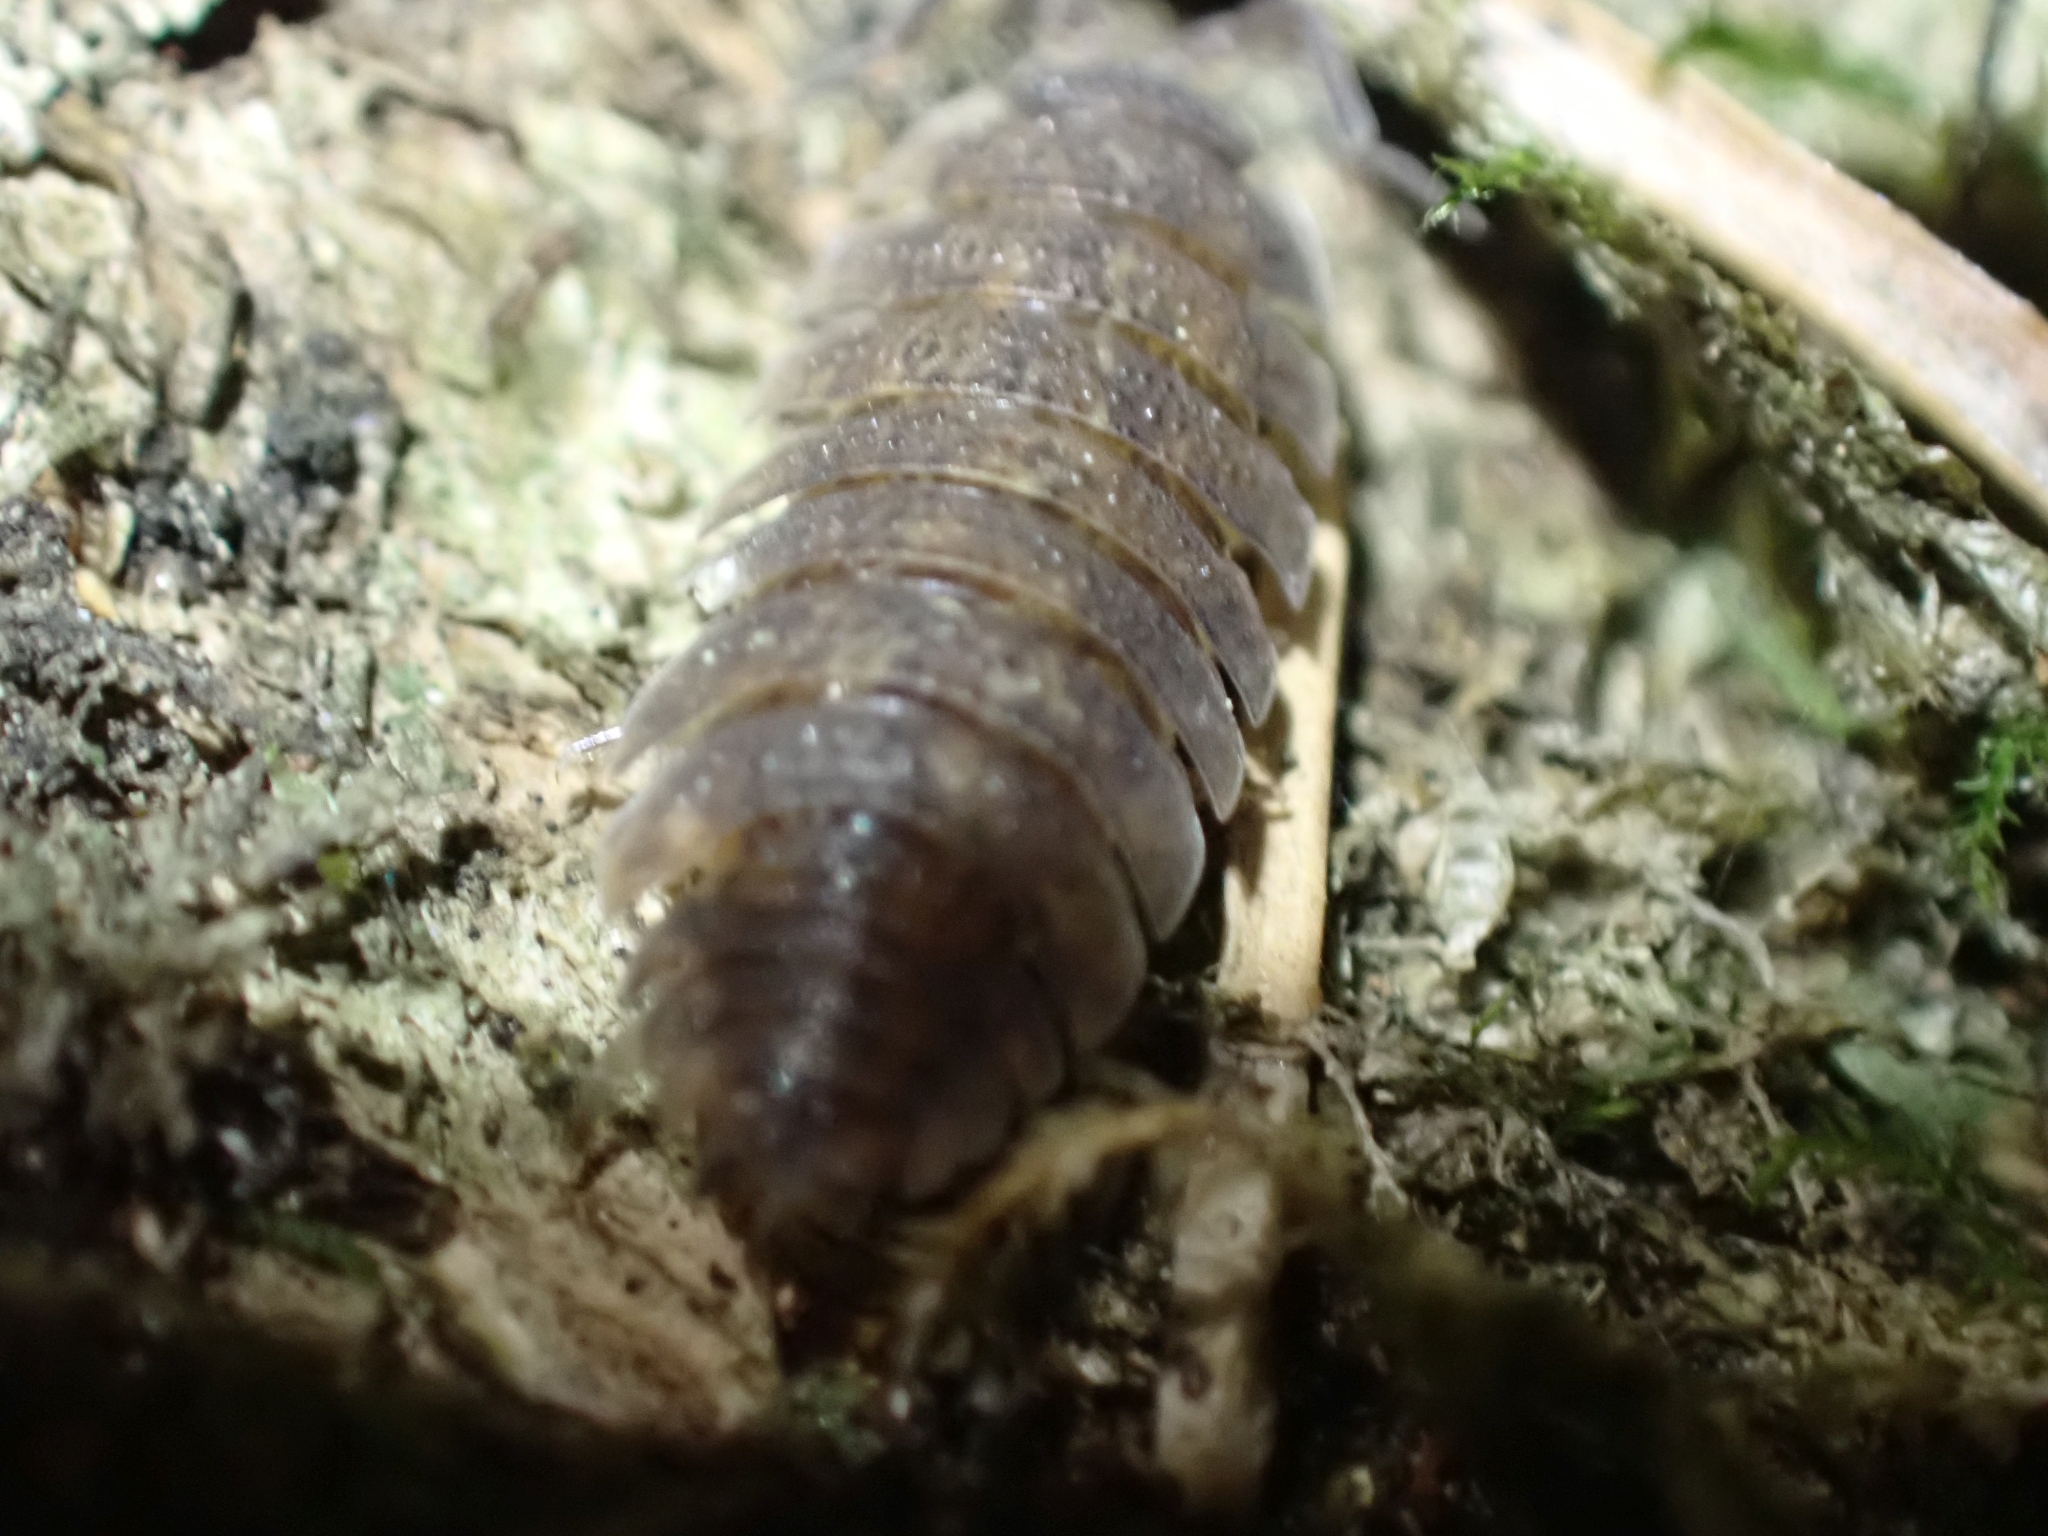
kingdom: Animalia
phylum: Arthropoda
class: Malacostraca
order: Isopoda
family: Porcellionidae
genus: Porcellio
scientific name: Porcellio scaber
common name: Common rough woodlouse
